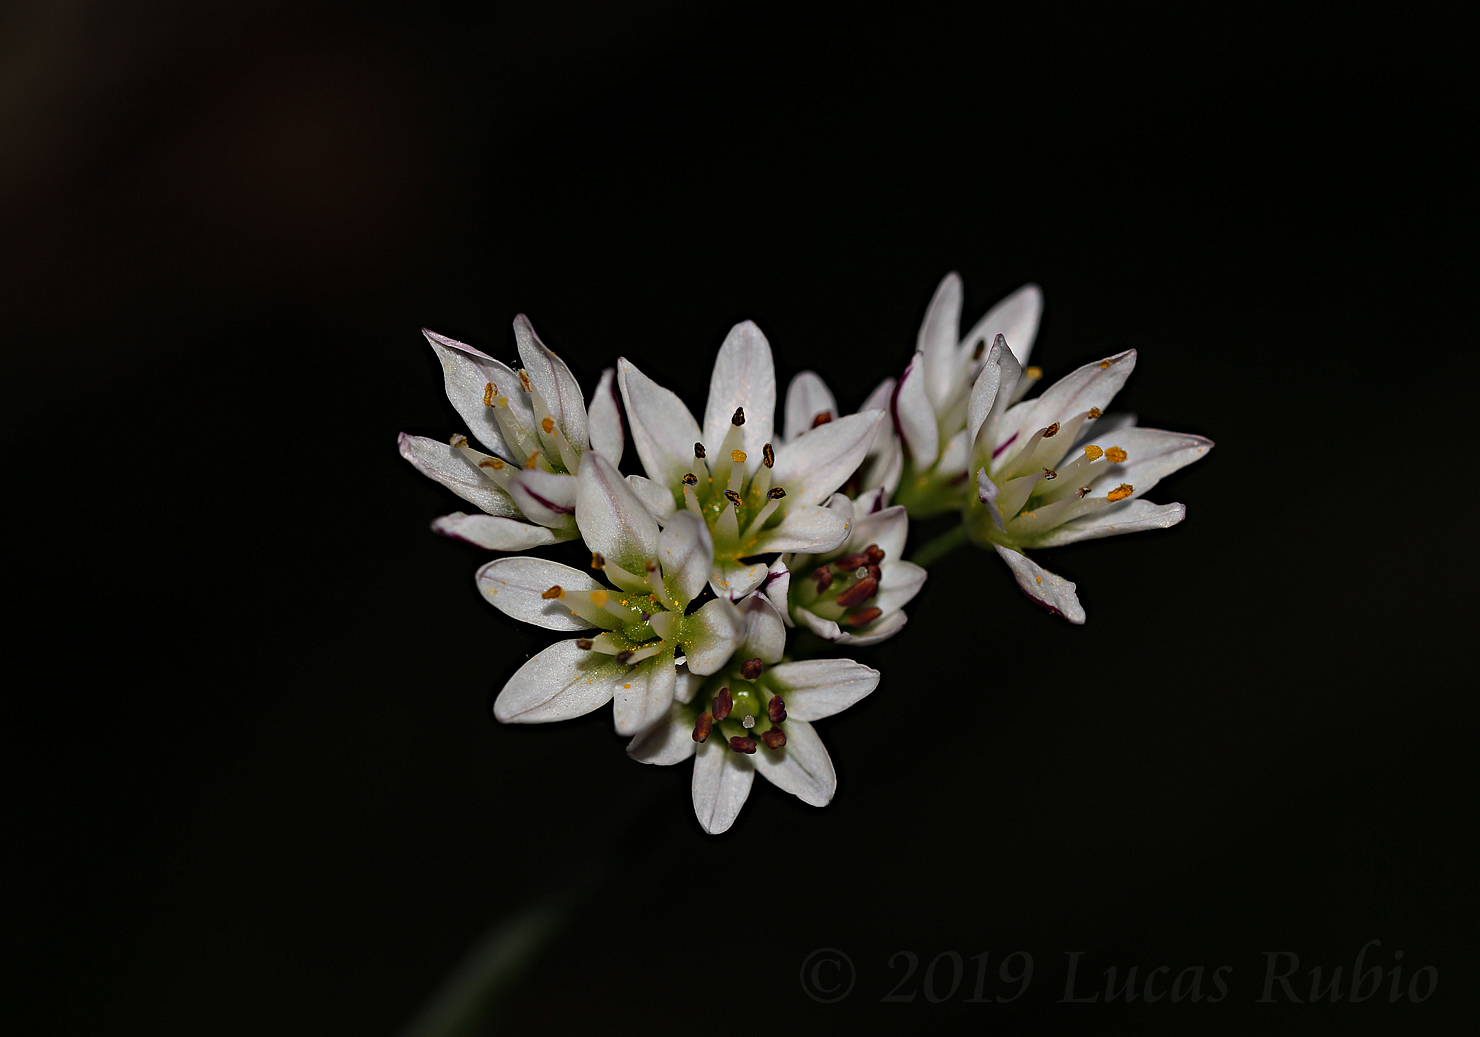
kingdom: Plantae
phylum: Tracheophyta
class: Liliopsida
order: Asparagales
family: Amaryllidaceae
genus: Nothoscordum
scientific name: Nothoscordum gracile
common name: Slender false garlic
